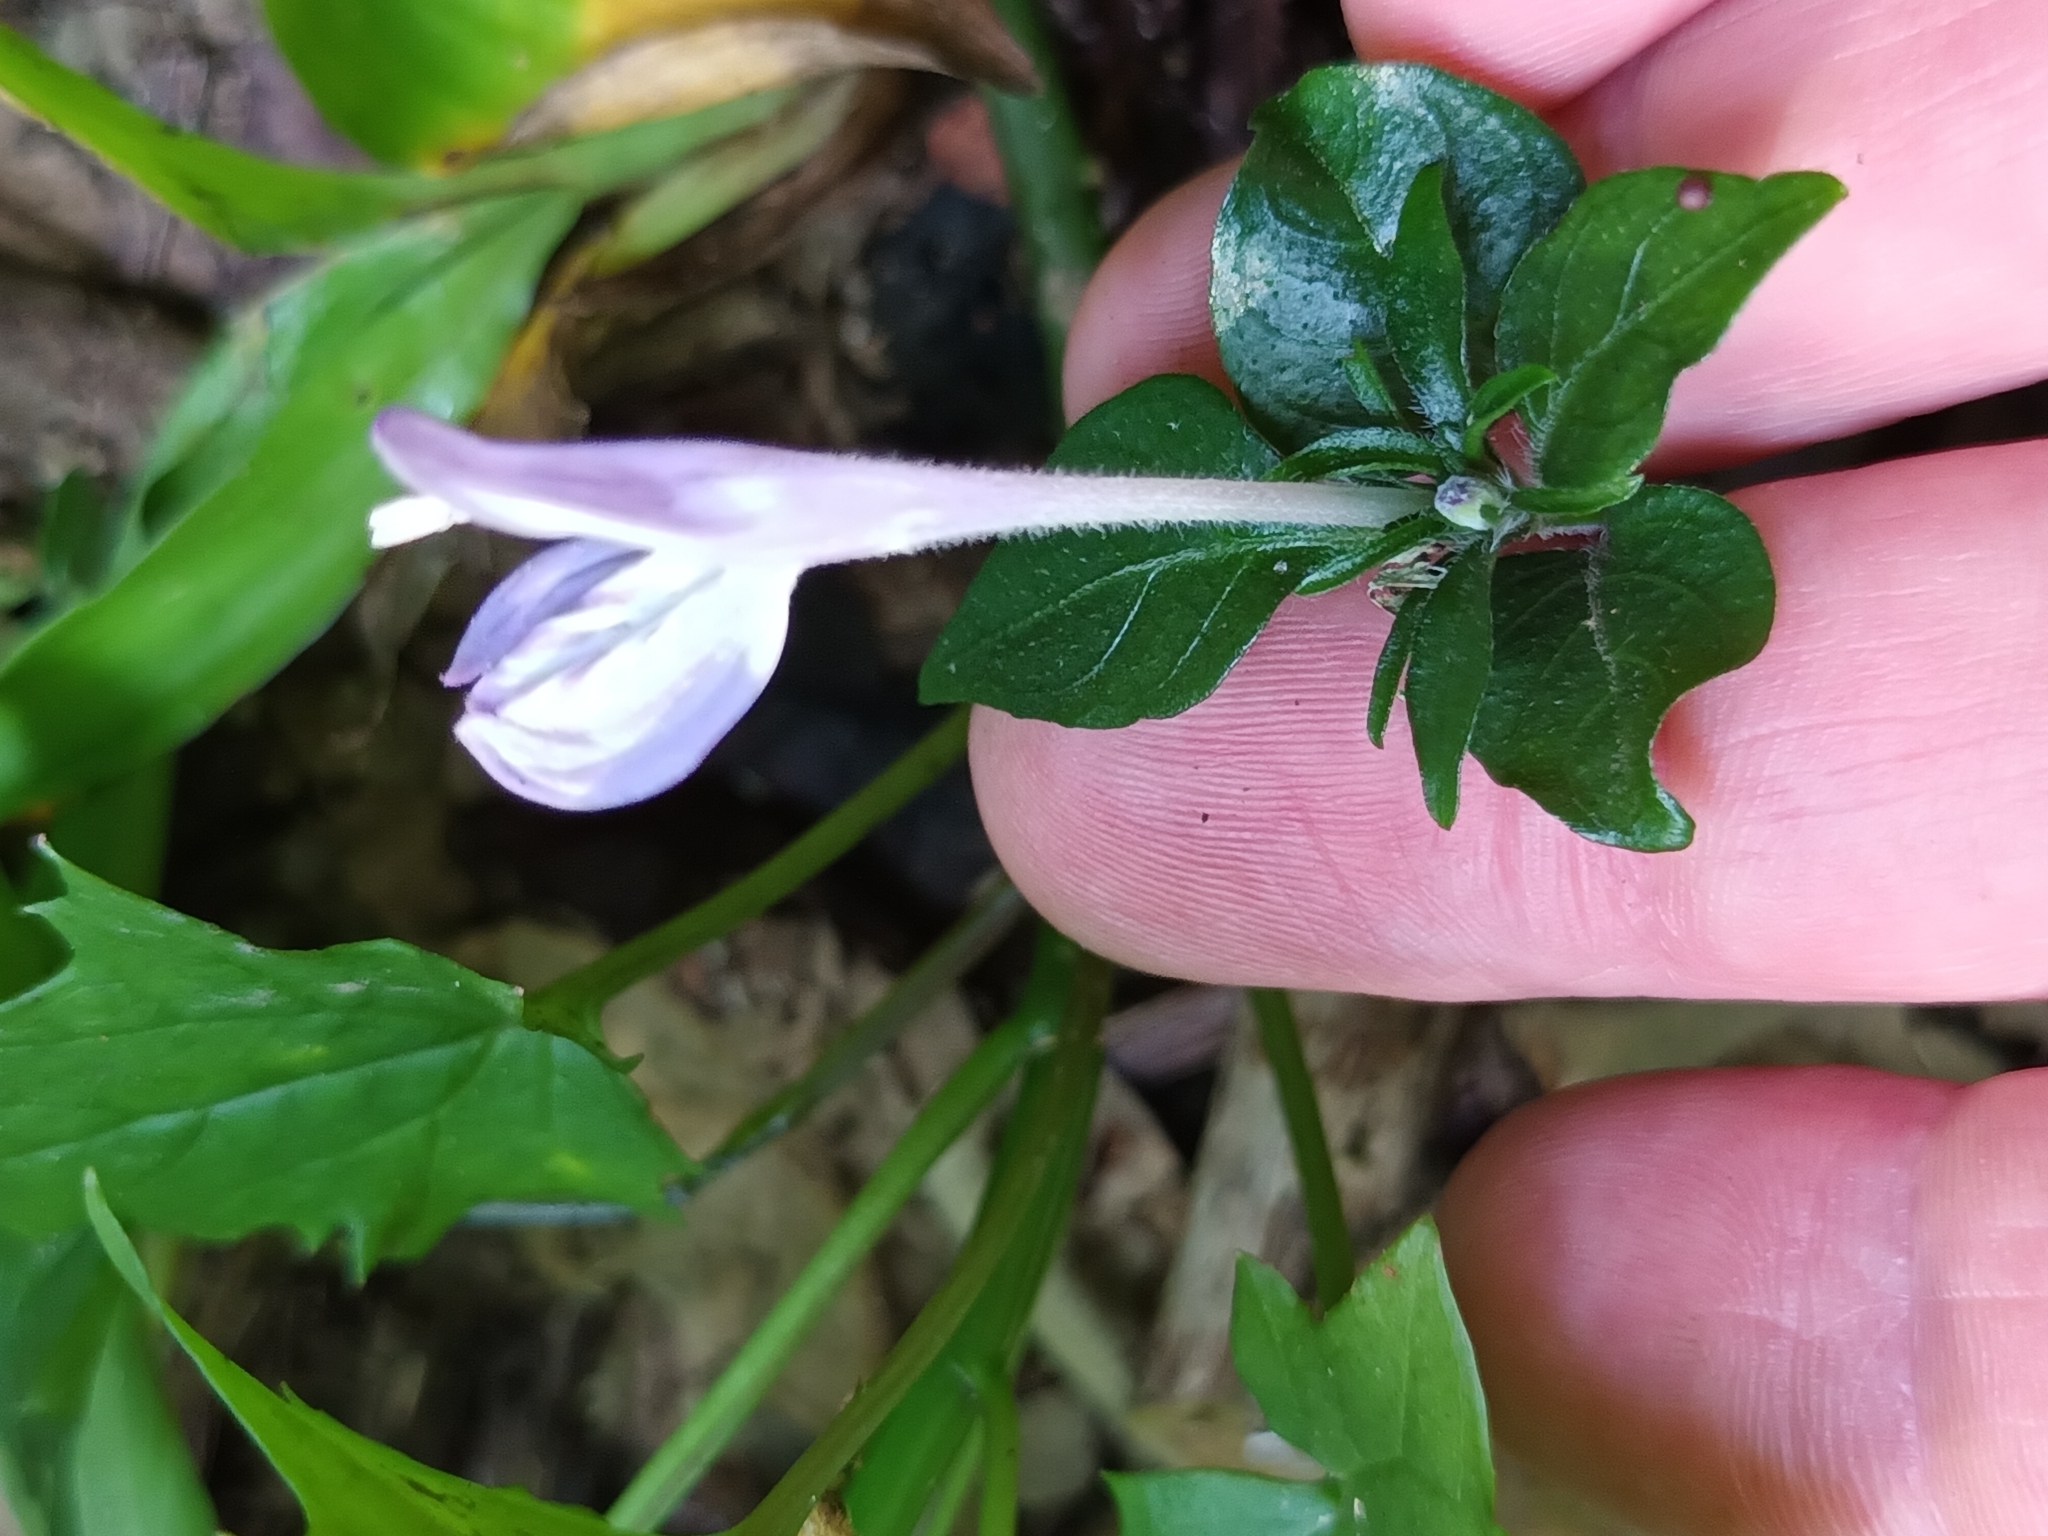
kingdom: Plantae
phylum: Tracheophyta
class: Magnoliopsida
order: Lamiales
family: Acanthaceae
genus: Hypoestes
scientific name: Hypoestes triflora
